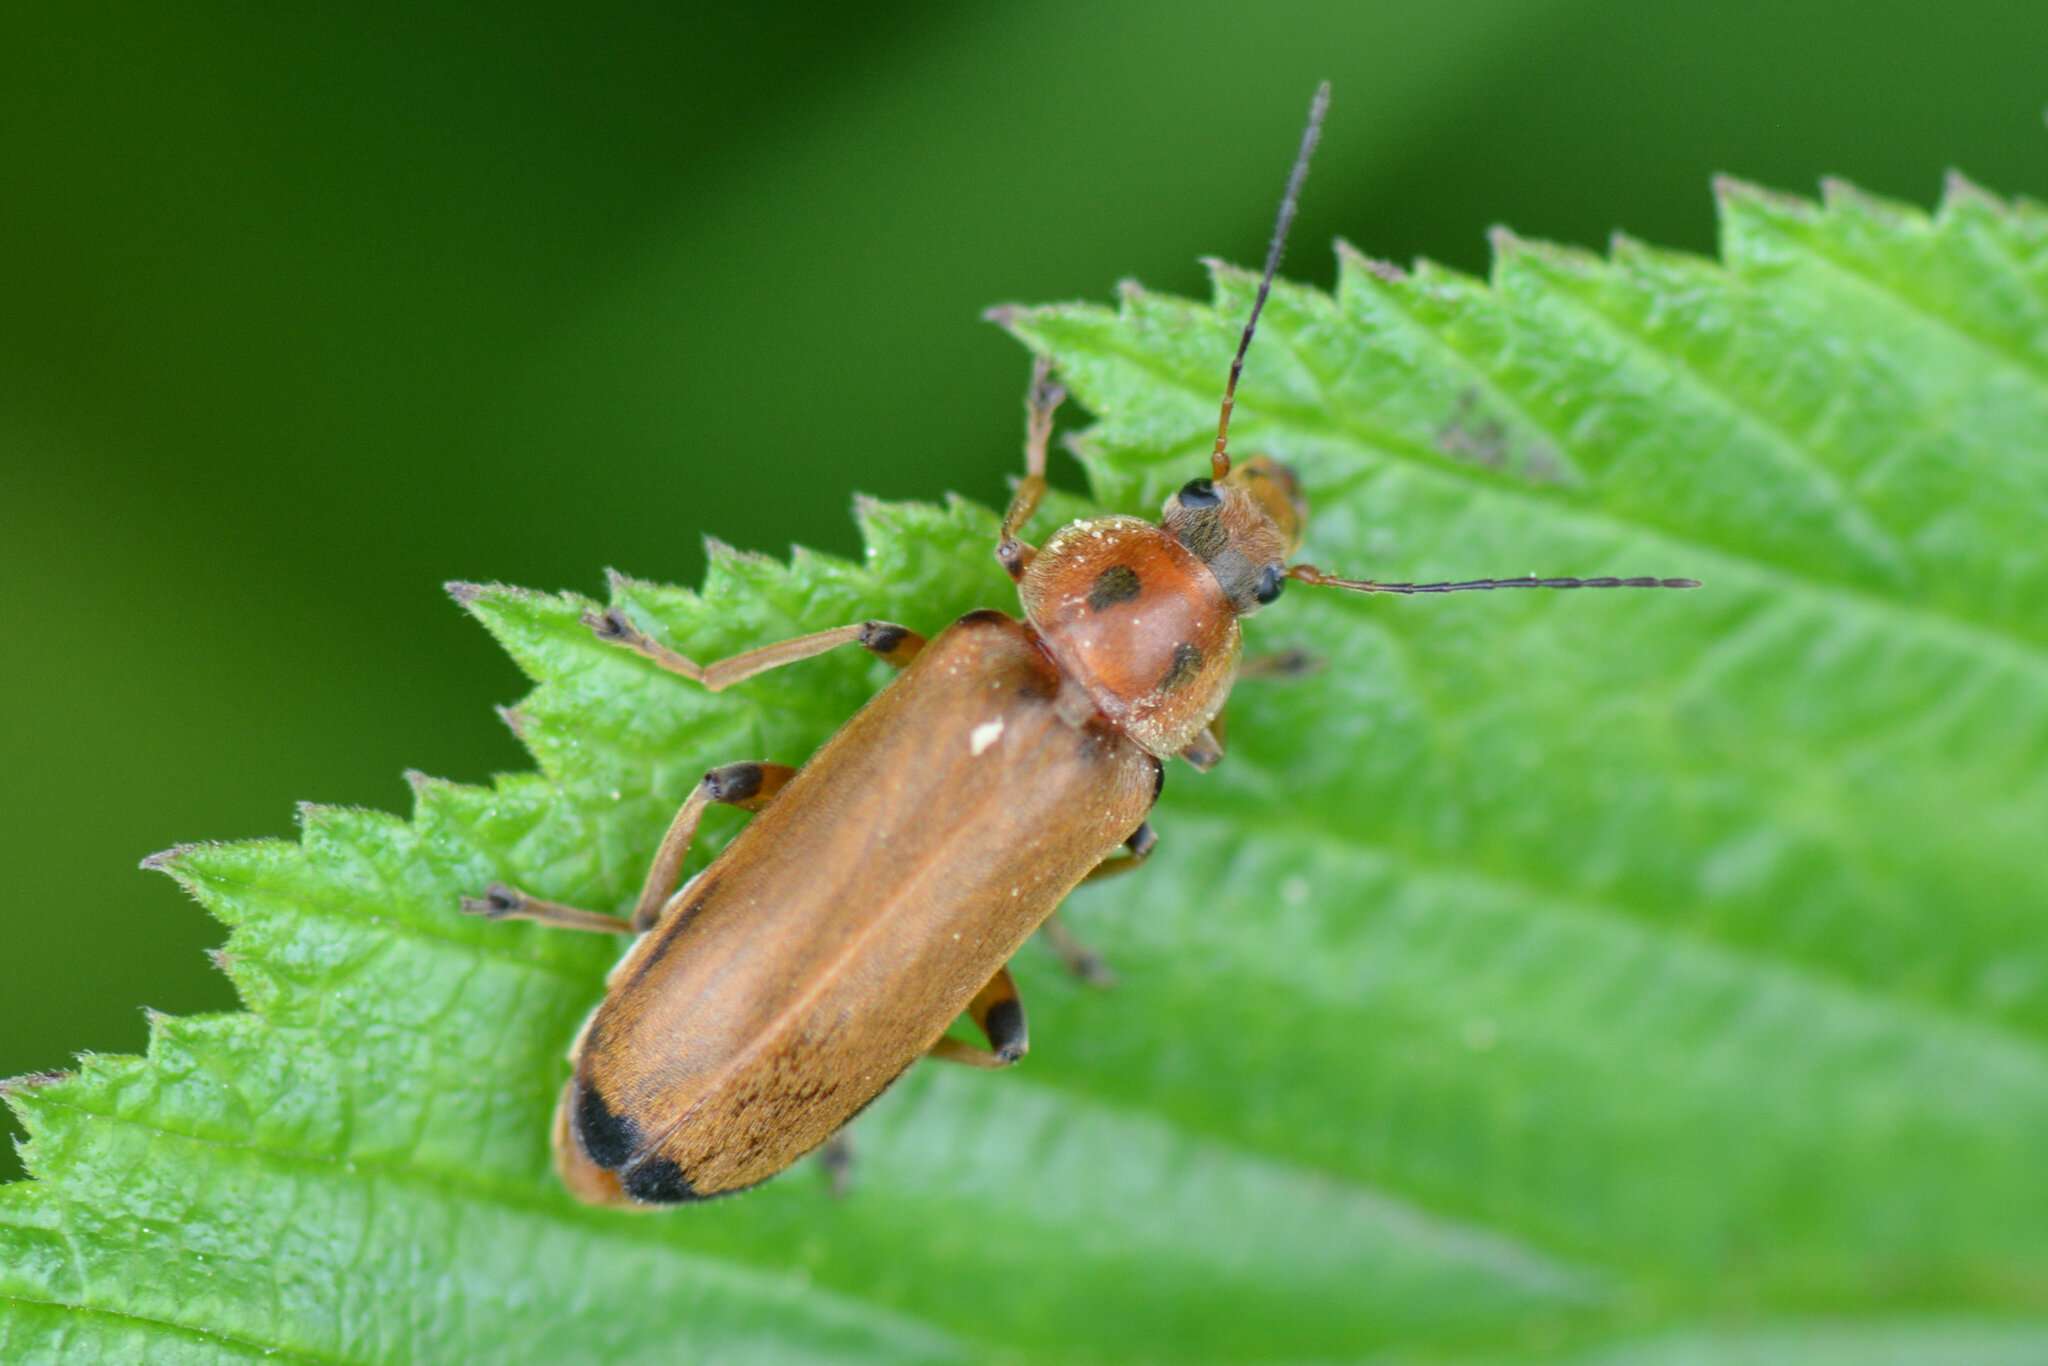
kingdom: Animalia
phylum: Arthropoda
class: Insecta
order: Coleoptera
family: Melandryidae
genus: Osphya
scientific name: Osphya bipunctata
